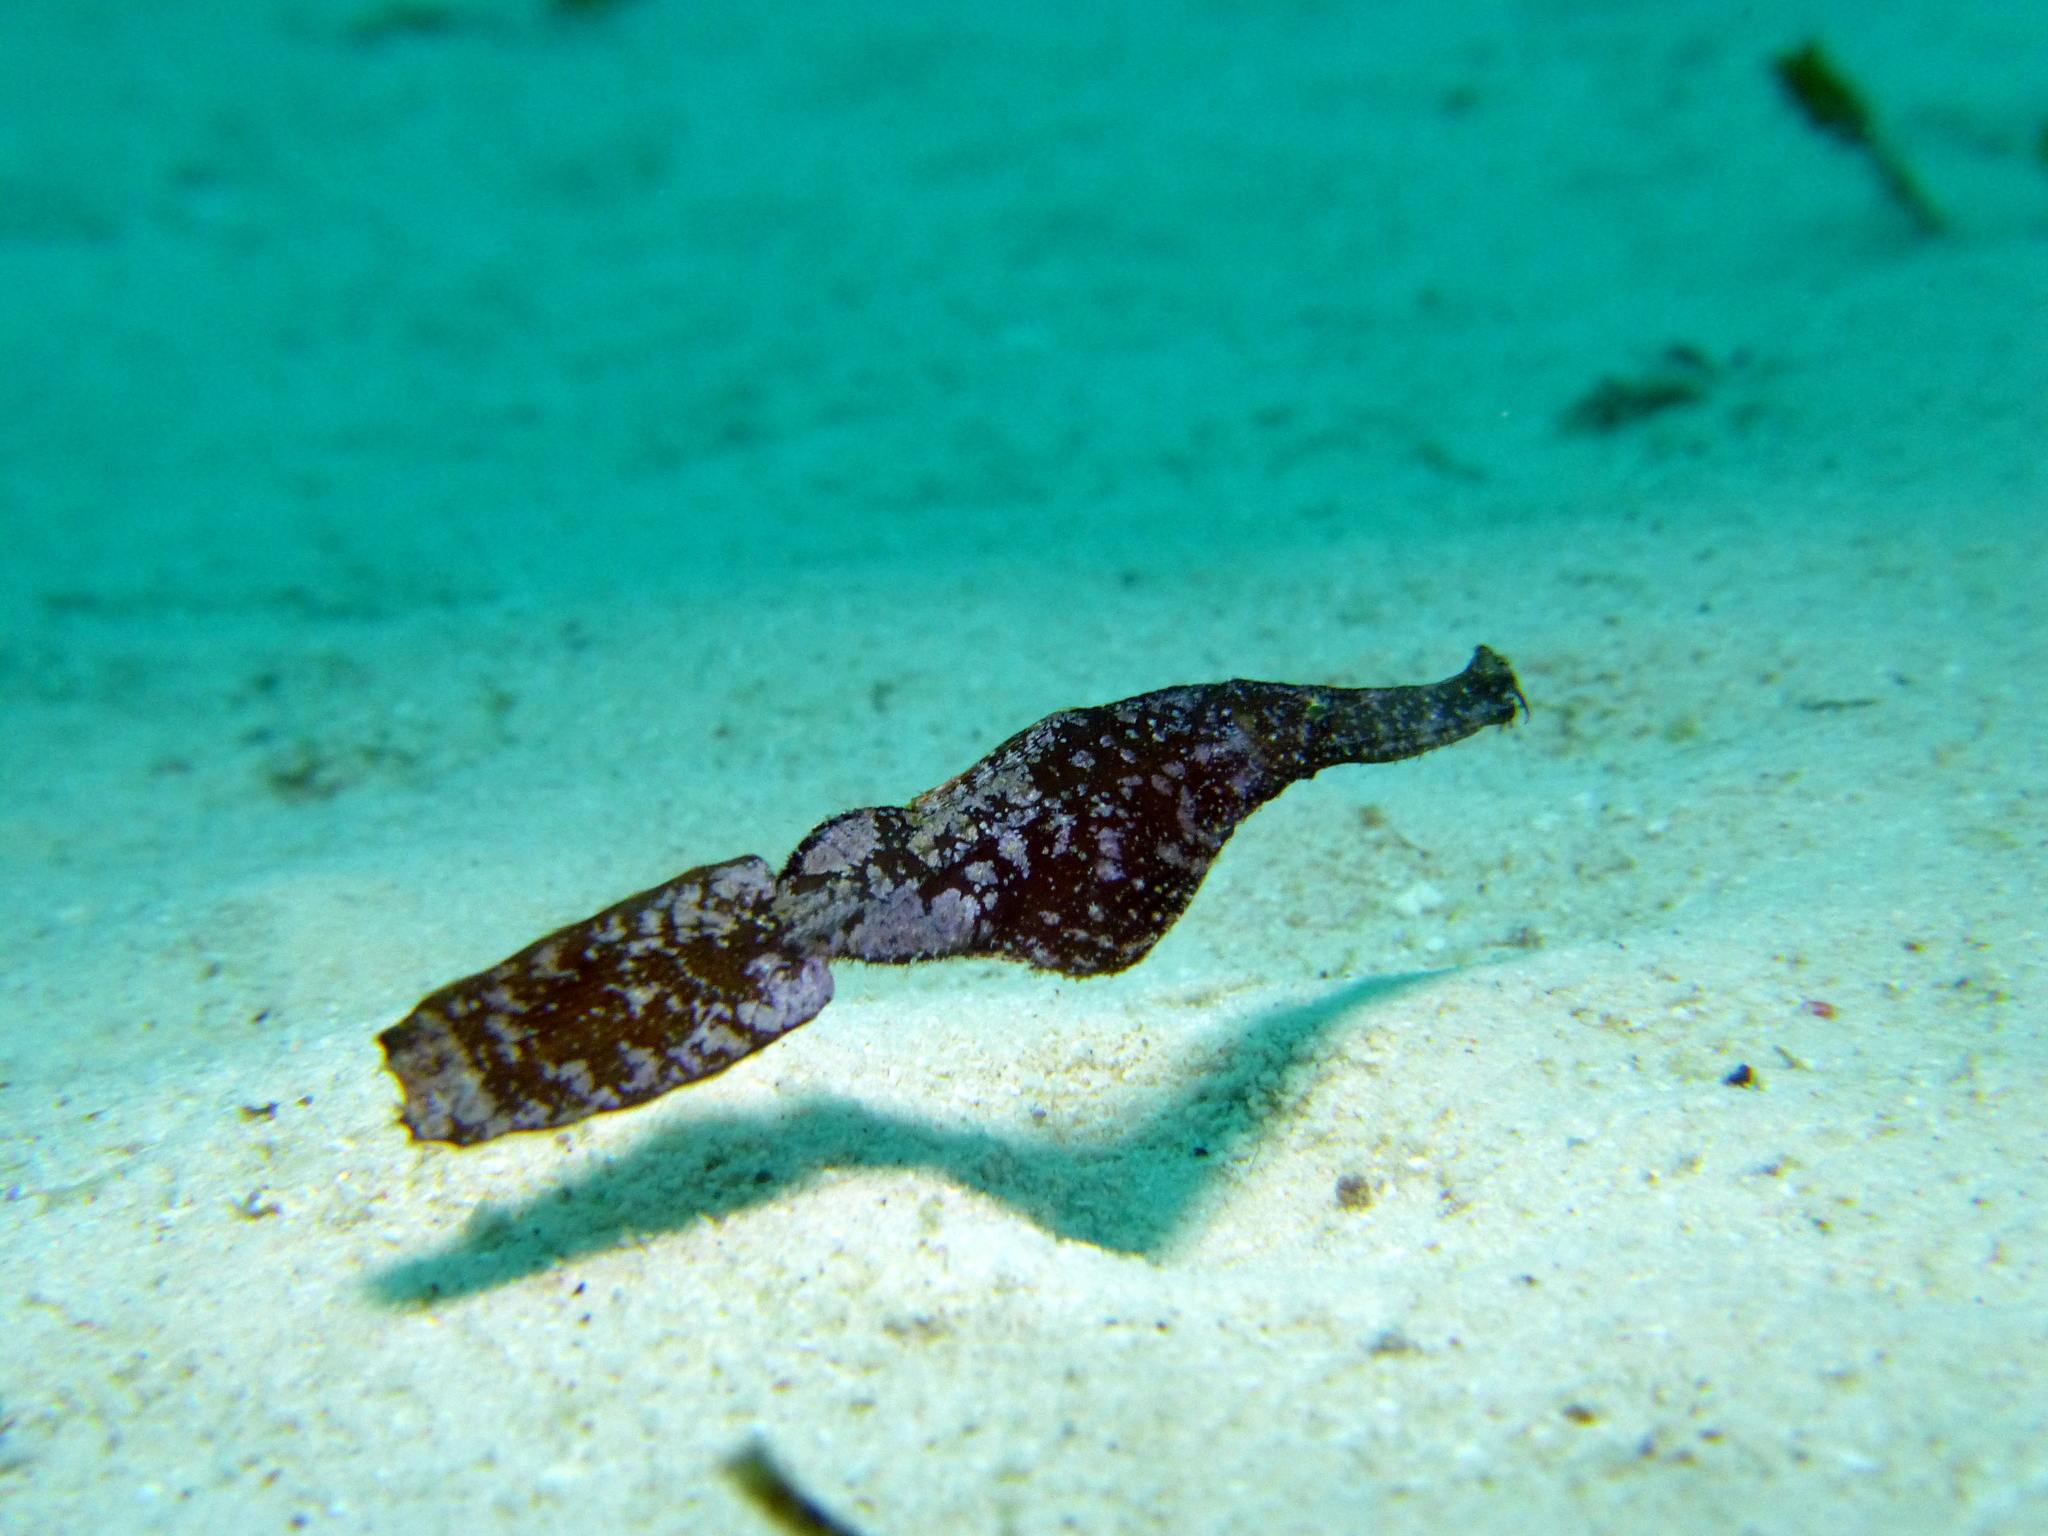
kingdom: Animalia
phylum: Chordata
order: Syngnathiformes
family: Solenostomidae
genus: Solenostomus
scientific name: Solenostomus cyanopterus
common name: Blue-finned ghost pipefish
